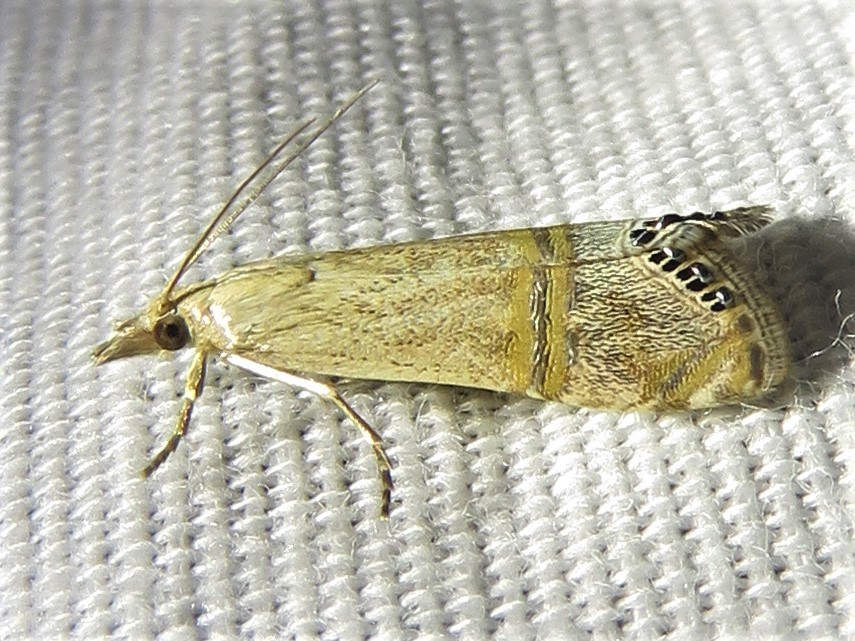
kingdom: Animalia
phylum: Arthropoda
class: Insecta
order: Lepidoptera
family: Crambidae
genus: Euchromius
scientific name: Euchromius ocellea
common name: Necklace veneer moth
